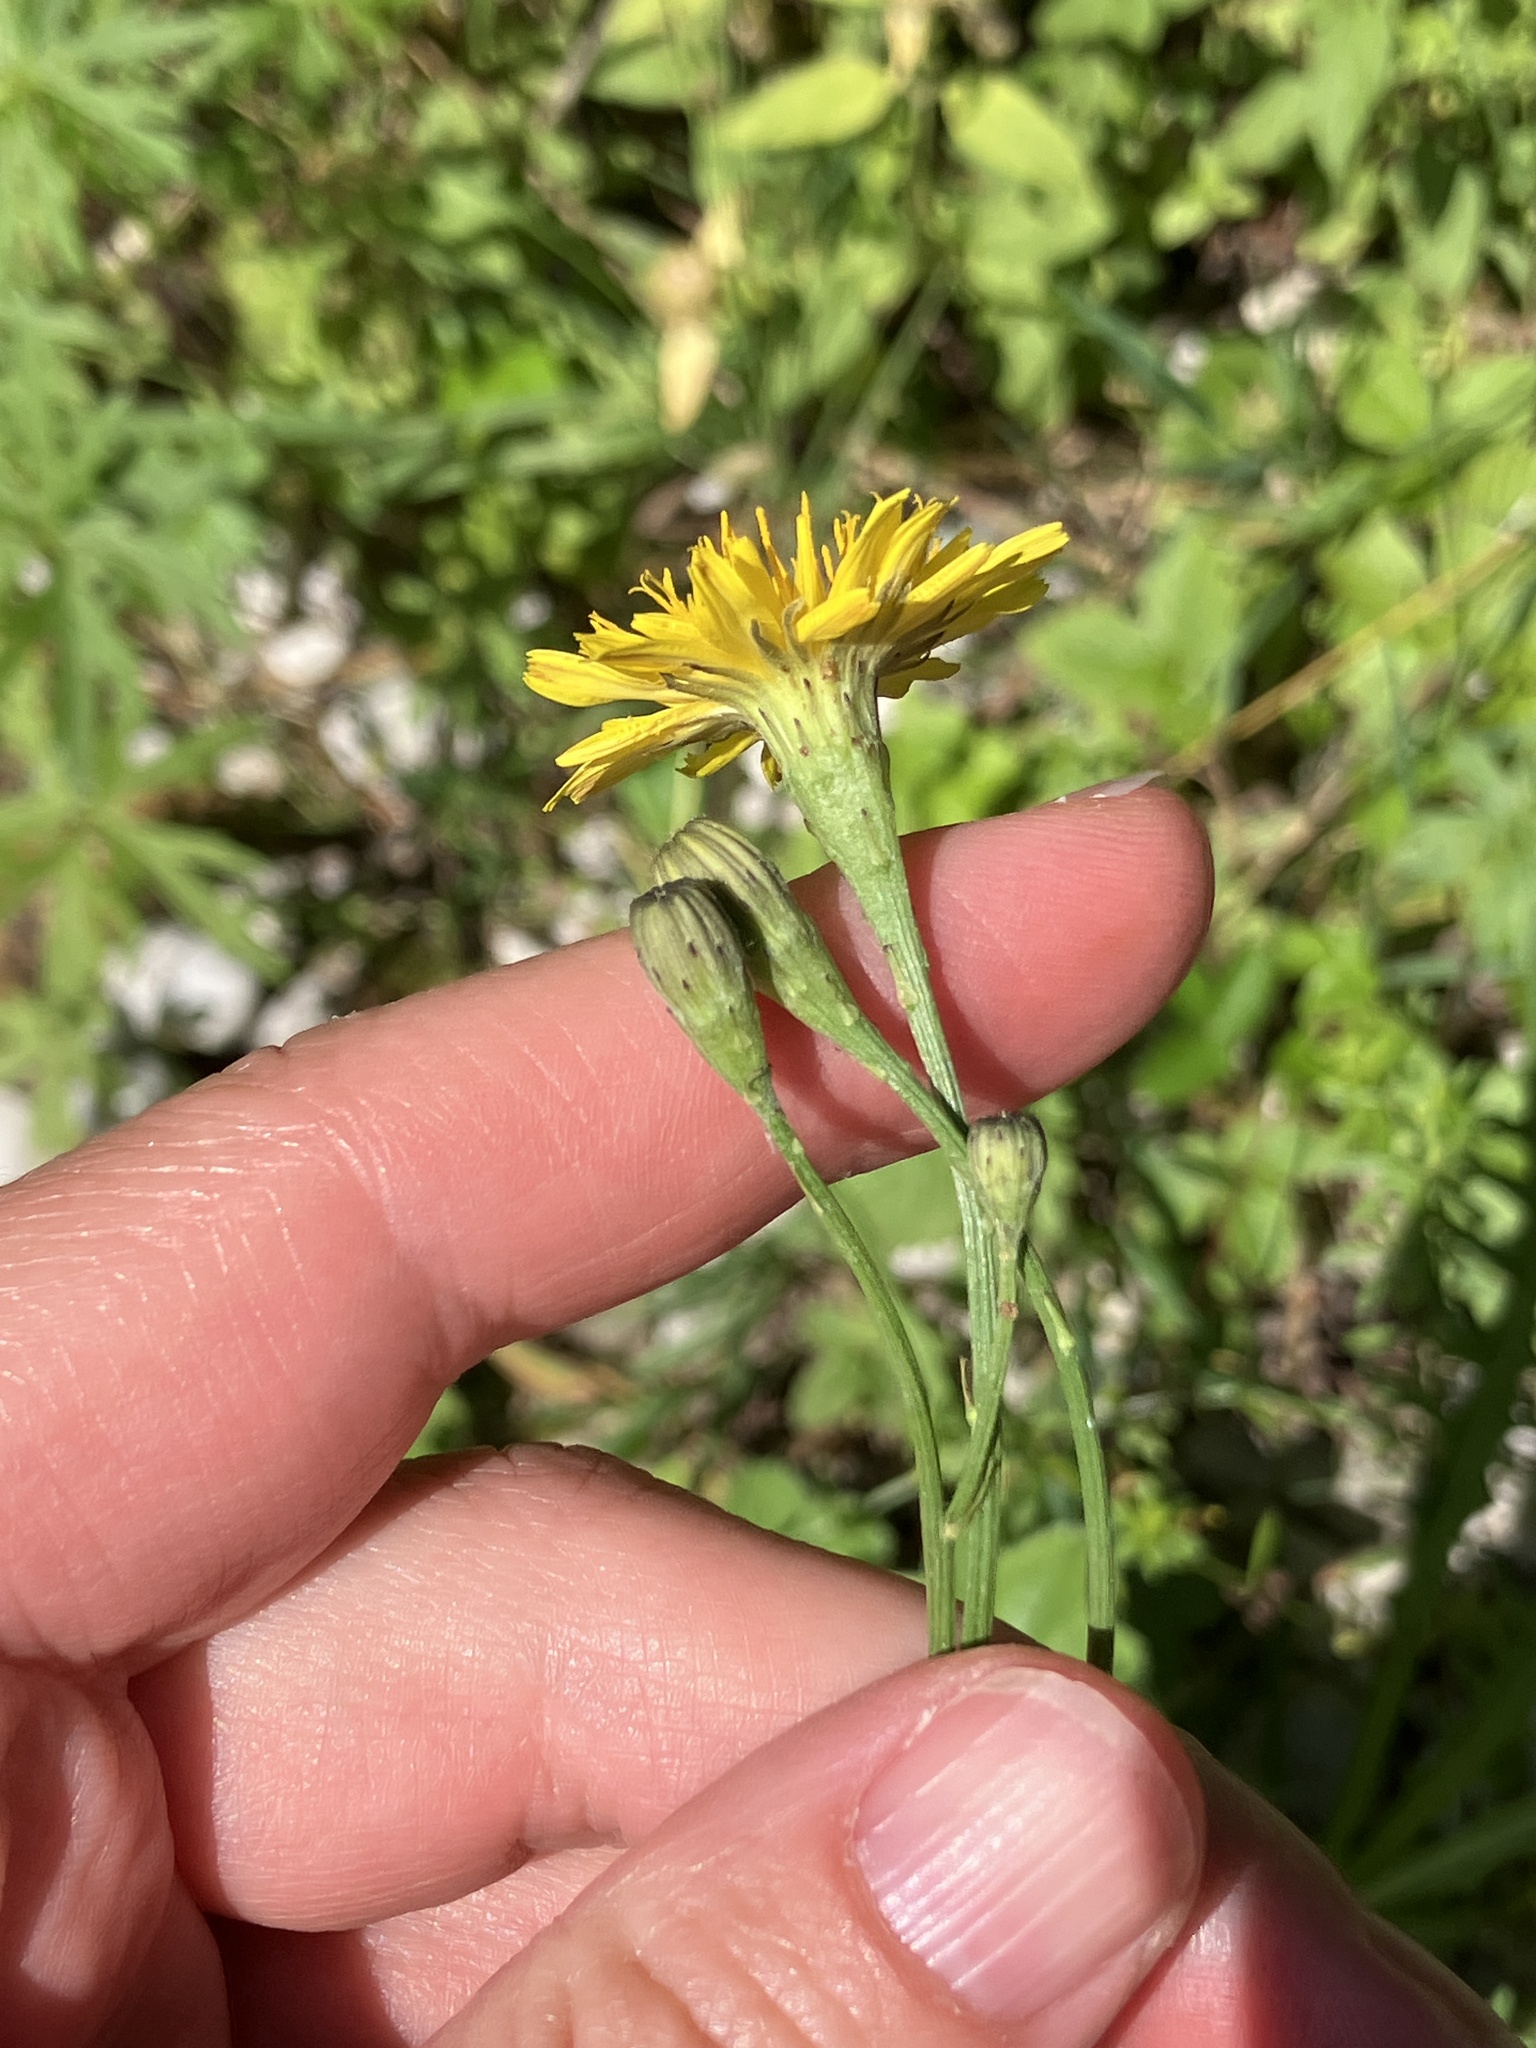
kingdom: Plantae
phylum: Tracheophyta
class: Magnoliopsida
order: Asterales
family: Asteraceae
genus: Scorzoneroides
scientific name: Scorzoneroides autumnalis
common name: Autumn hawkbit
